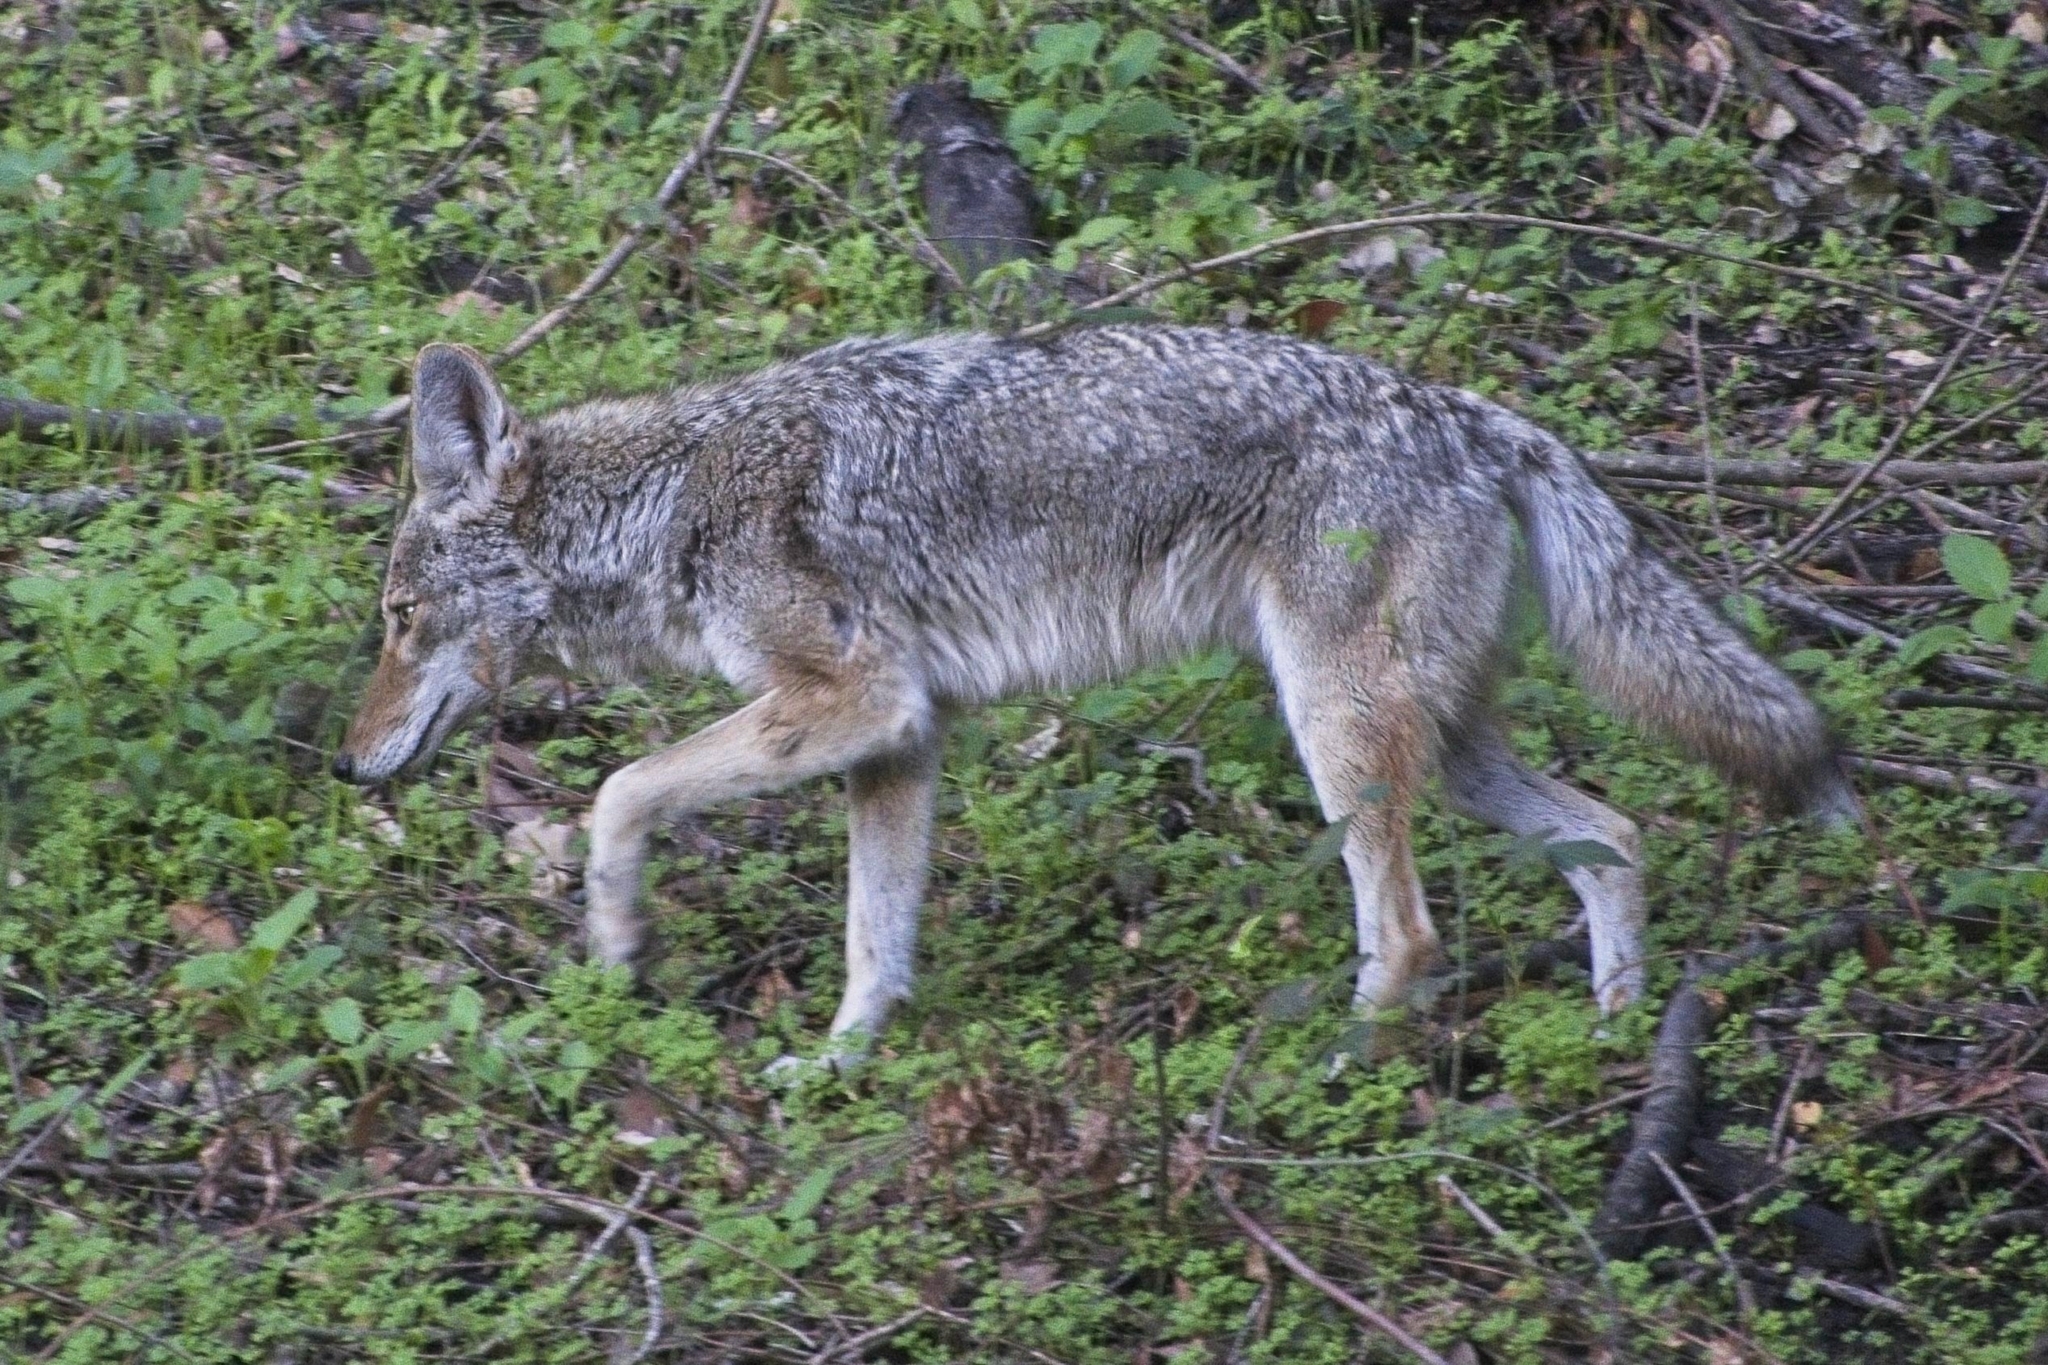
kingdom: Animalia
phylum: Chordata
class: Mammalia
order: Carnivora
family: Canidae
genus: Canis
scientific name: Canis latrans
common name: Coyote
